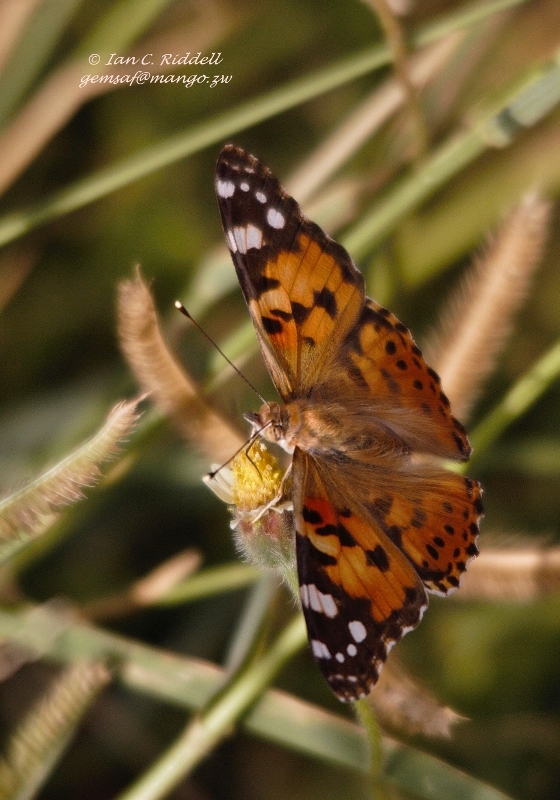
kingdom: Animalia
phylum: Arthropoda
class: Insecta
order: Lepidoptera
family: Nymphalidae
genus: Vanessa
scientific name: Vanessa cardui
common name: Painted lady
